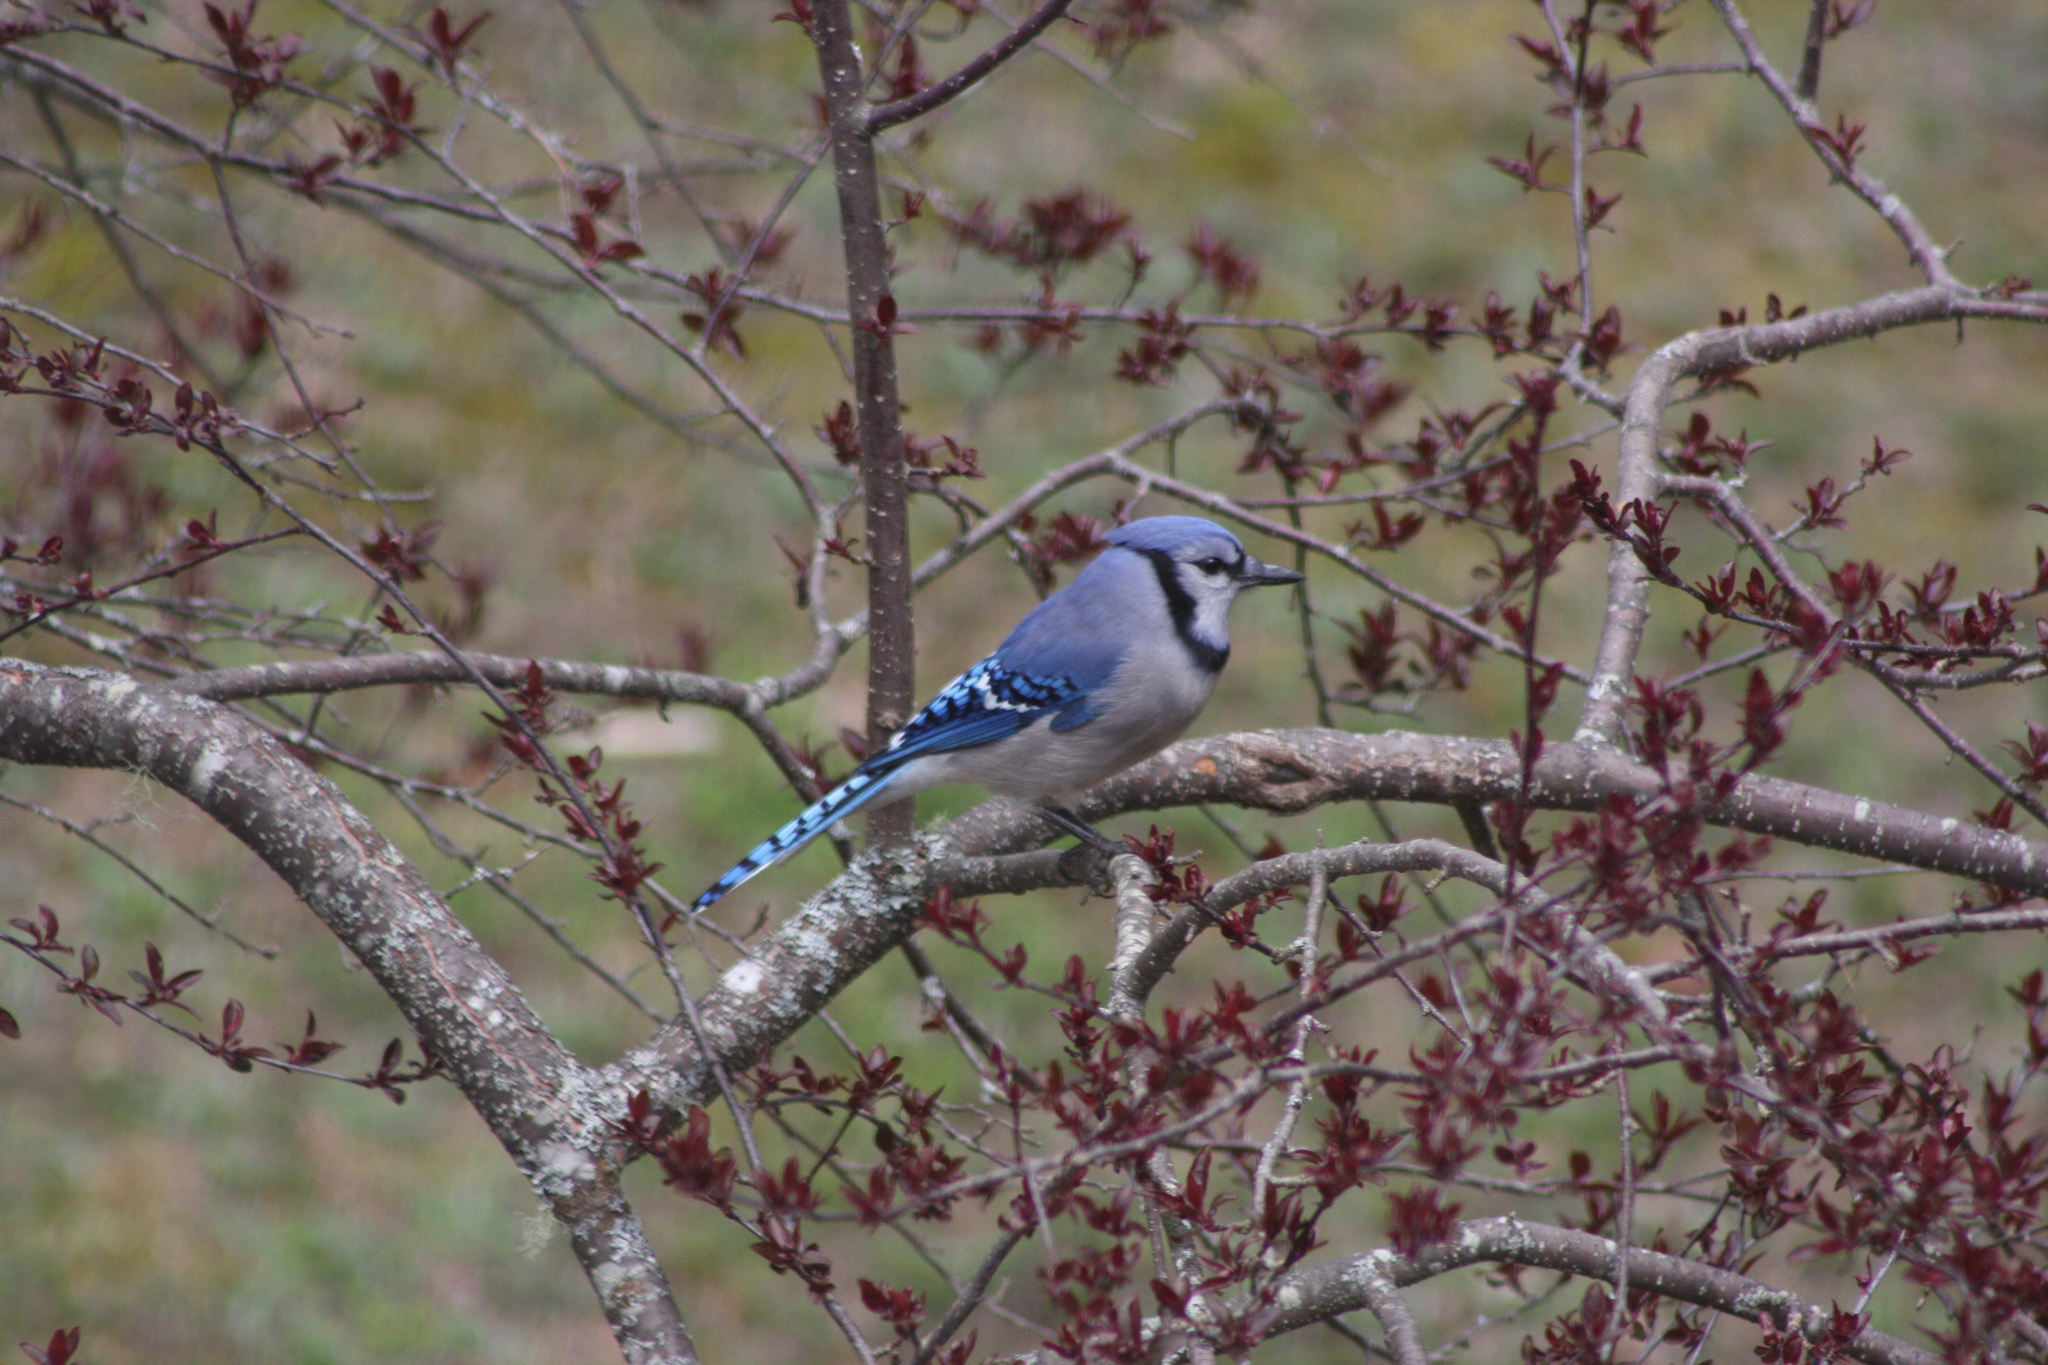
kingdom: Animalia
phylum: Chordata
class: Aves
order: Passeriformes
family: Corvidae
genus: Cyanocitta
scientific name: Cyanocitta cristata
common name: Blue jay
